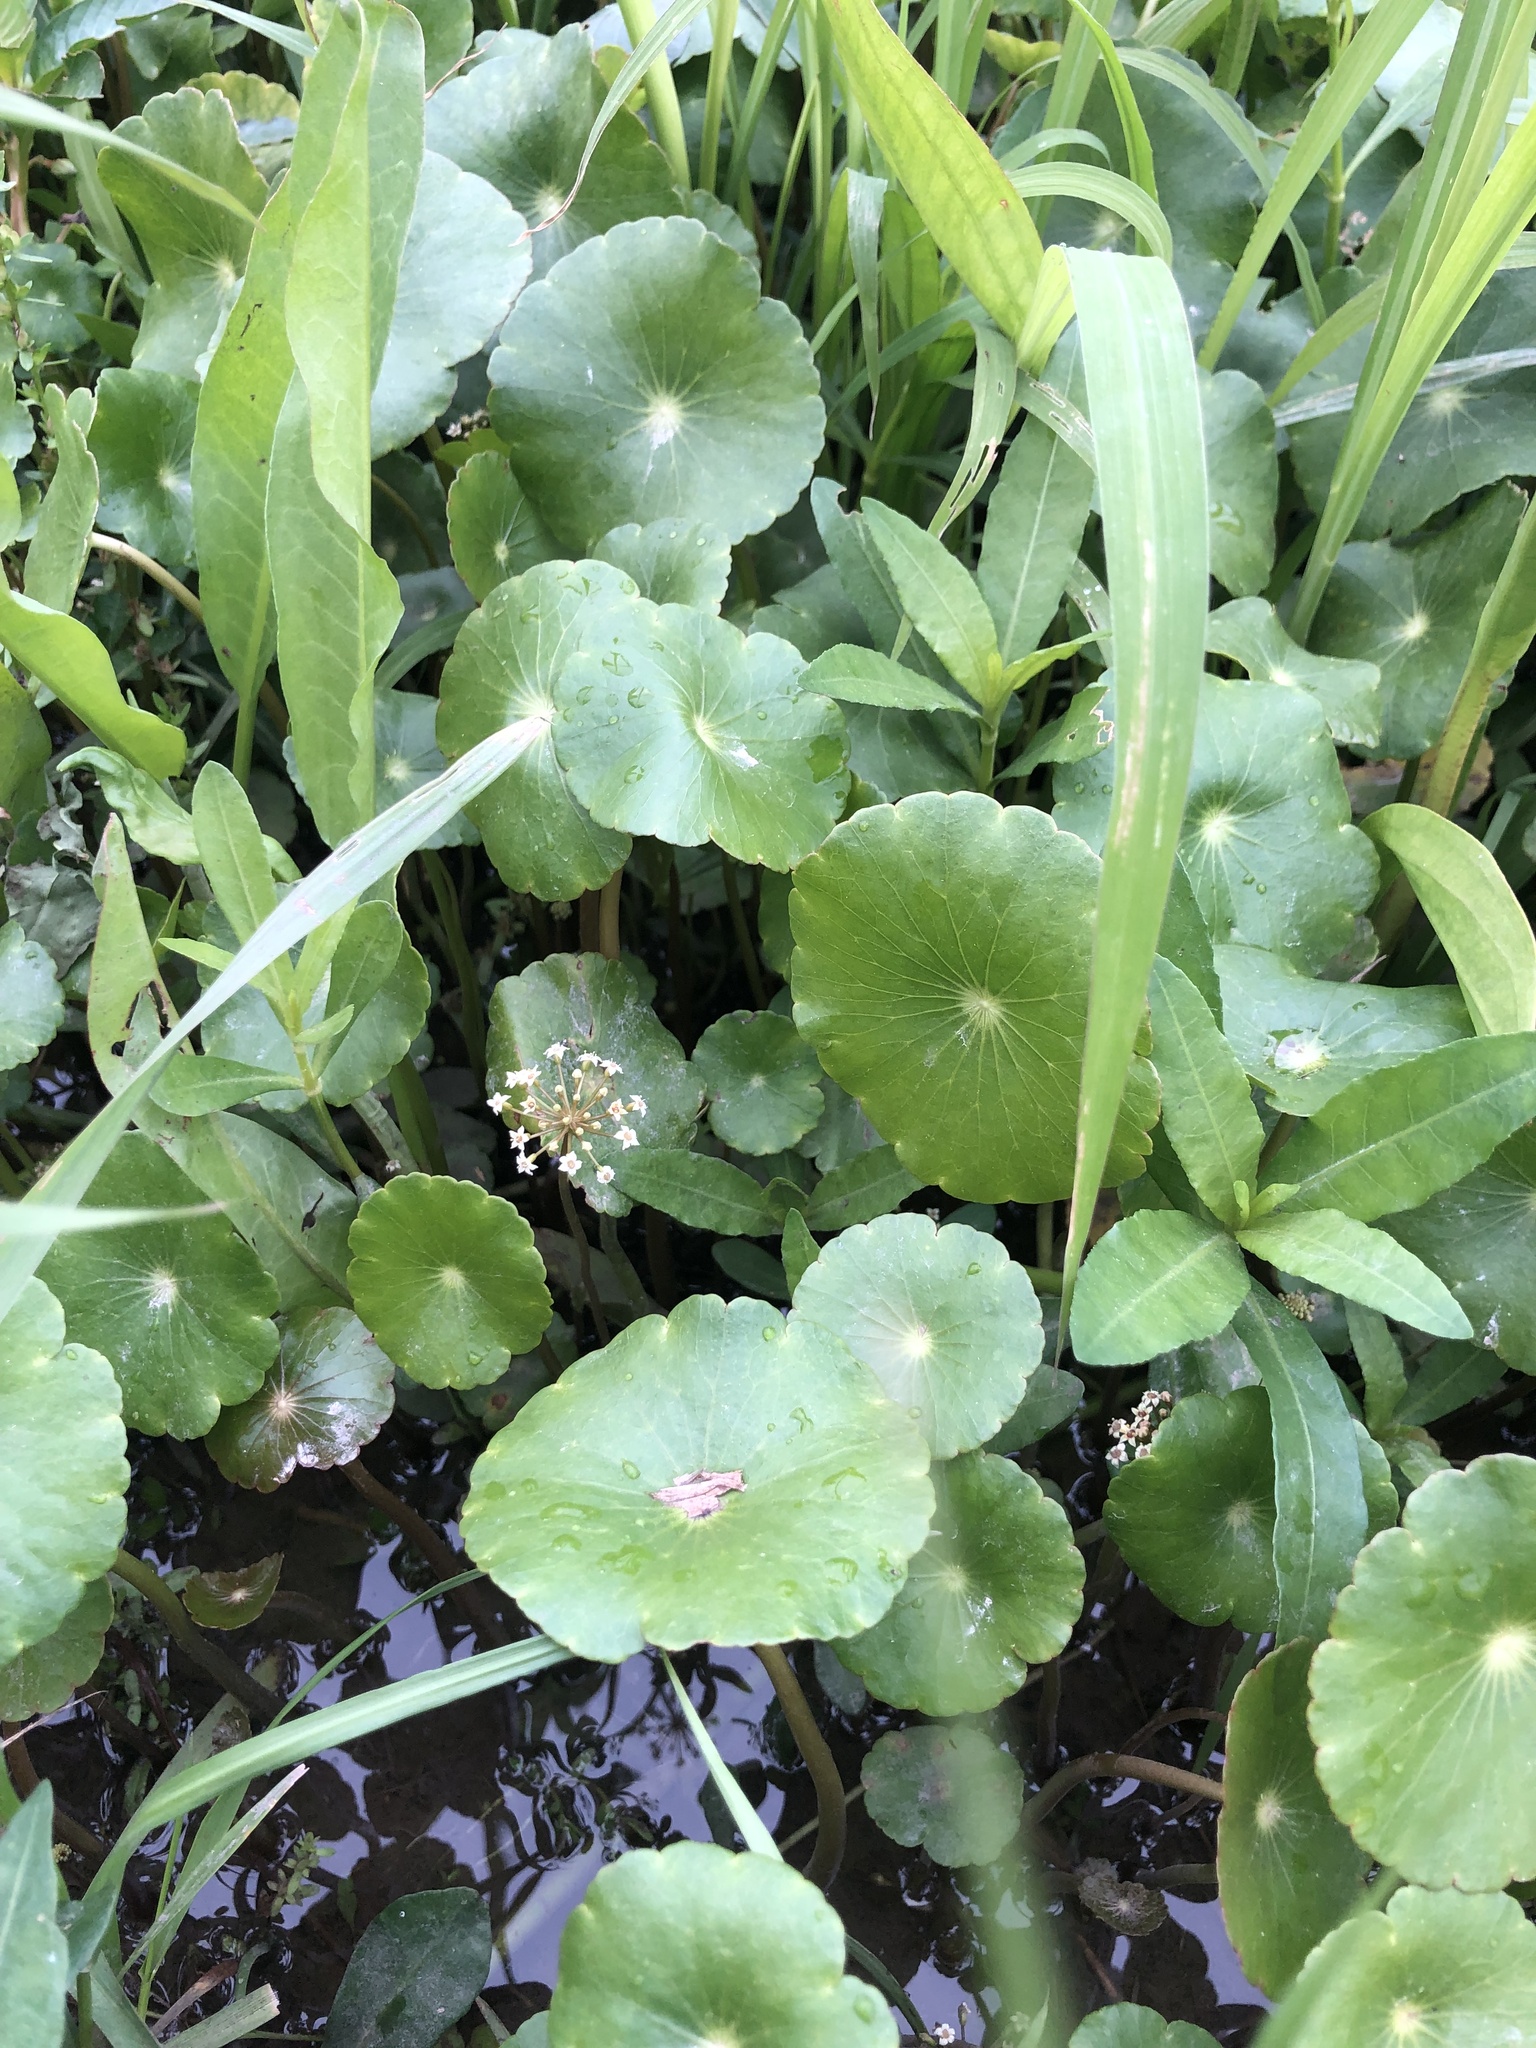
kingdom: Plantae
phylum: Tracheophyta
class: Magnoliopsida
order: Apiales
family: Araliaceae
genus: Hydrocotyle
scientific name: Hydrocotyle umbellata
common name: Water pennywort
